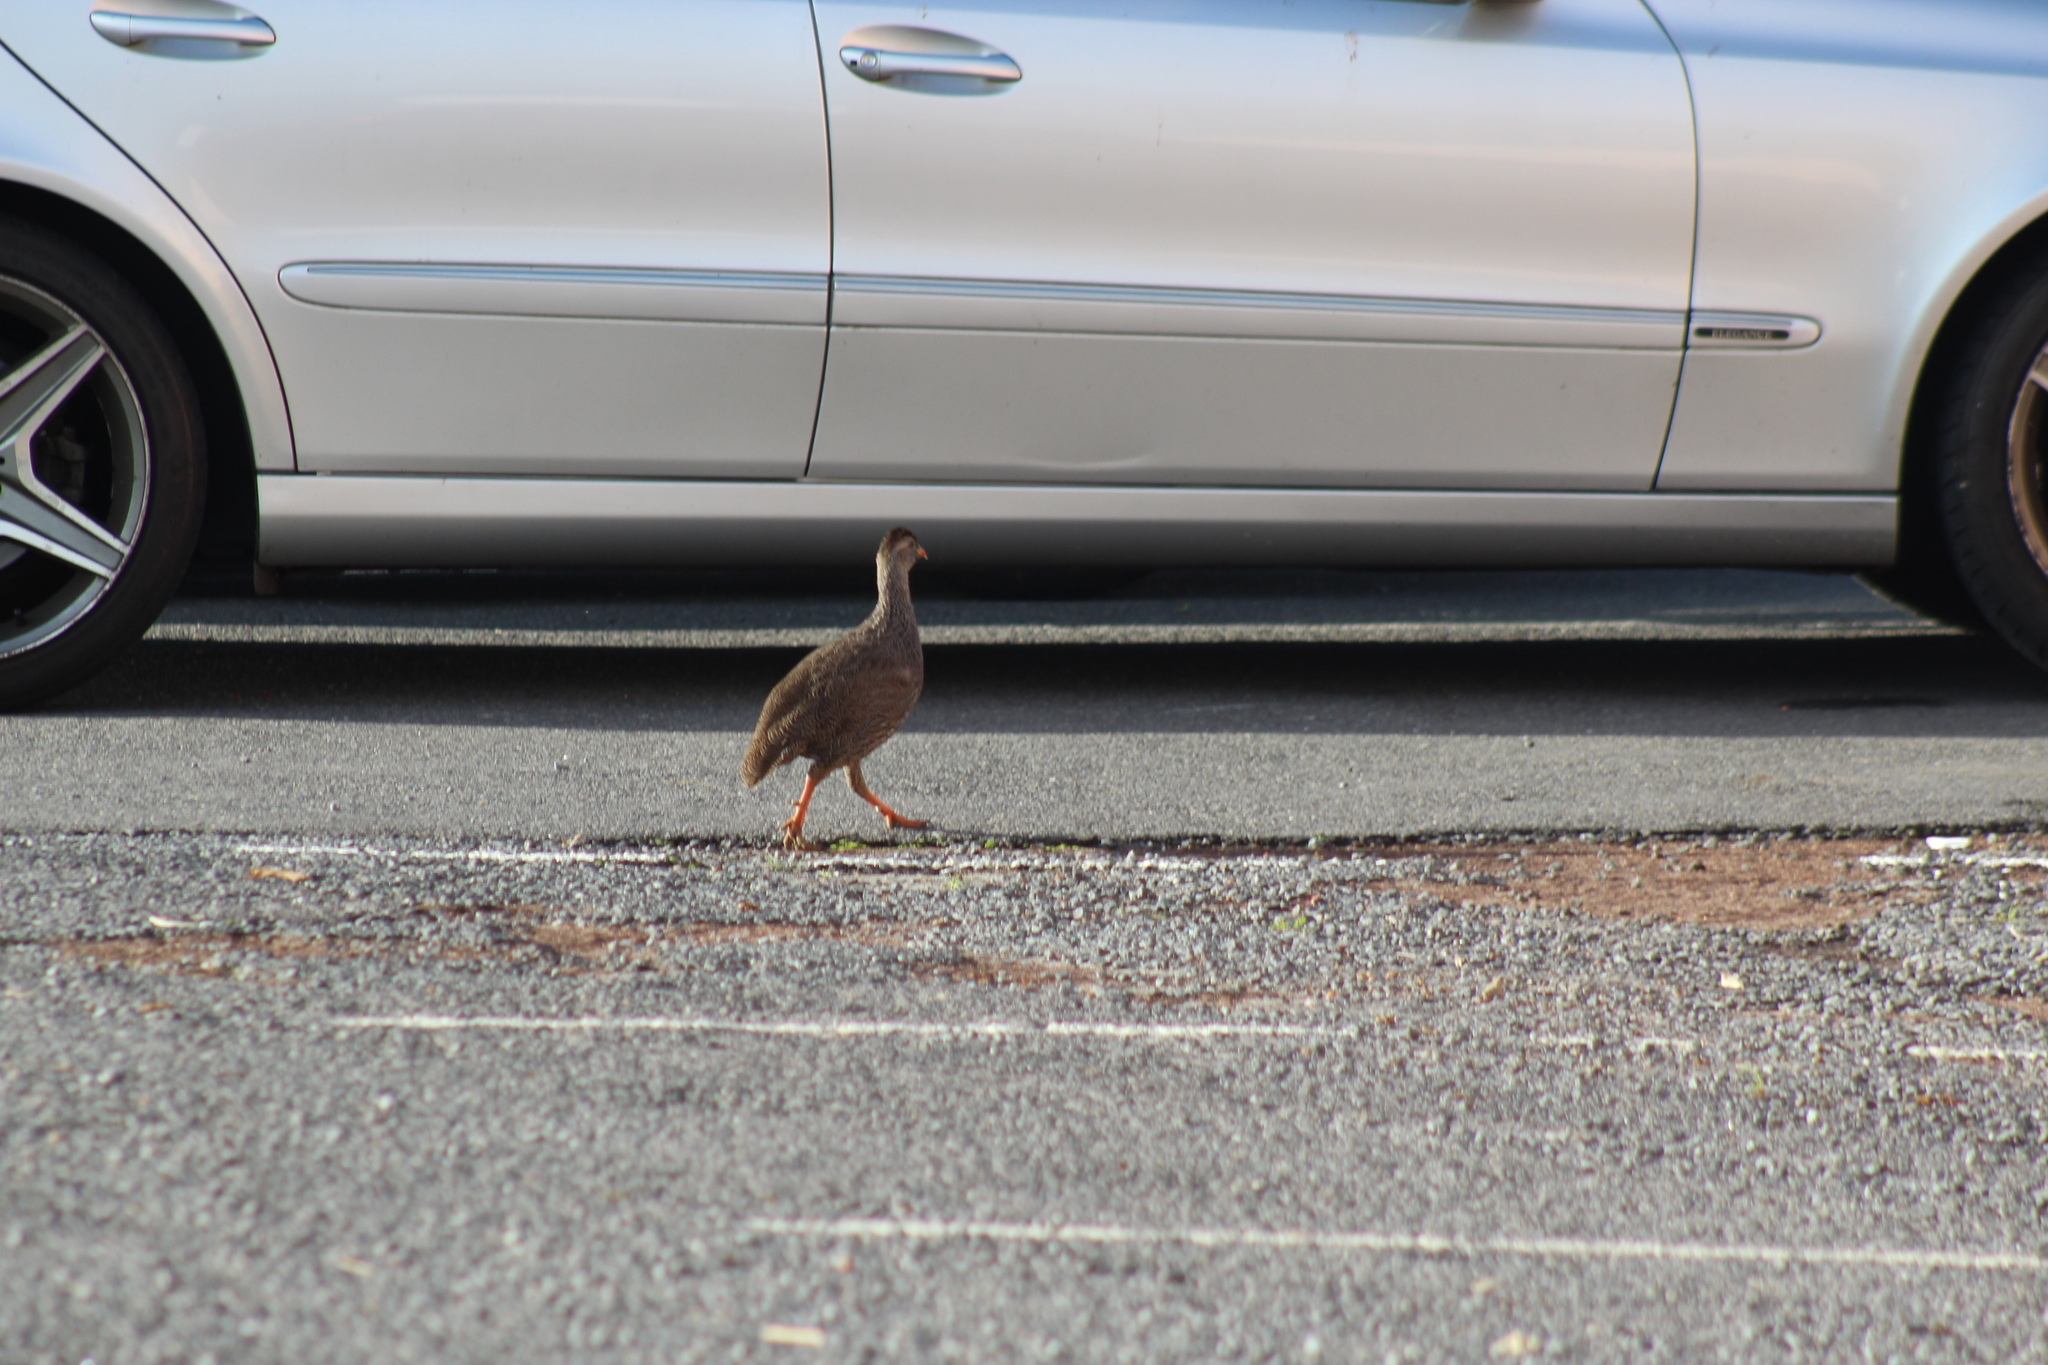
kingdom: Animalia
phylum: Chordata
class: Aves
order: Galliformes
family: Phasianidae
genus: Pternistis
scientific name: Pternistis capensis
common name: Cape spurfowl
